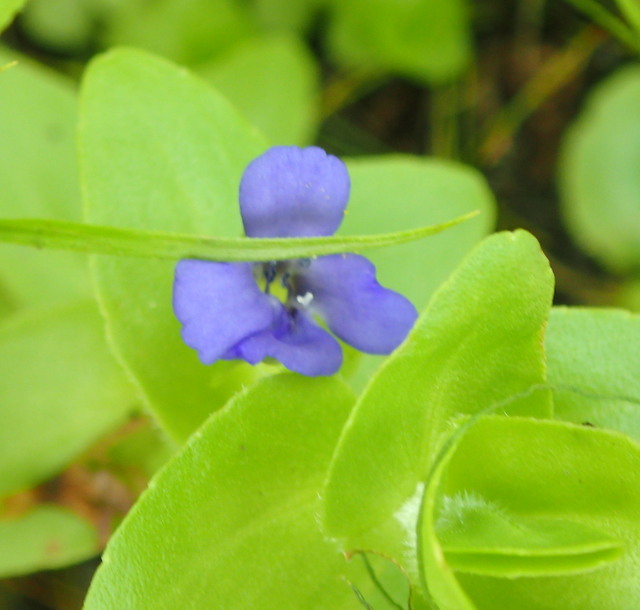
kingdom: Plantae
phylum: Tracheophyta
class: Magnoliopsida
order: Lamiales
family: Plantaginaceae
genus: Bacopa
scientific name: Bacopa caroliniana
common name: Lemon bacopa
